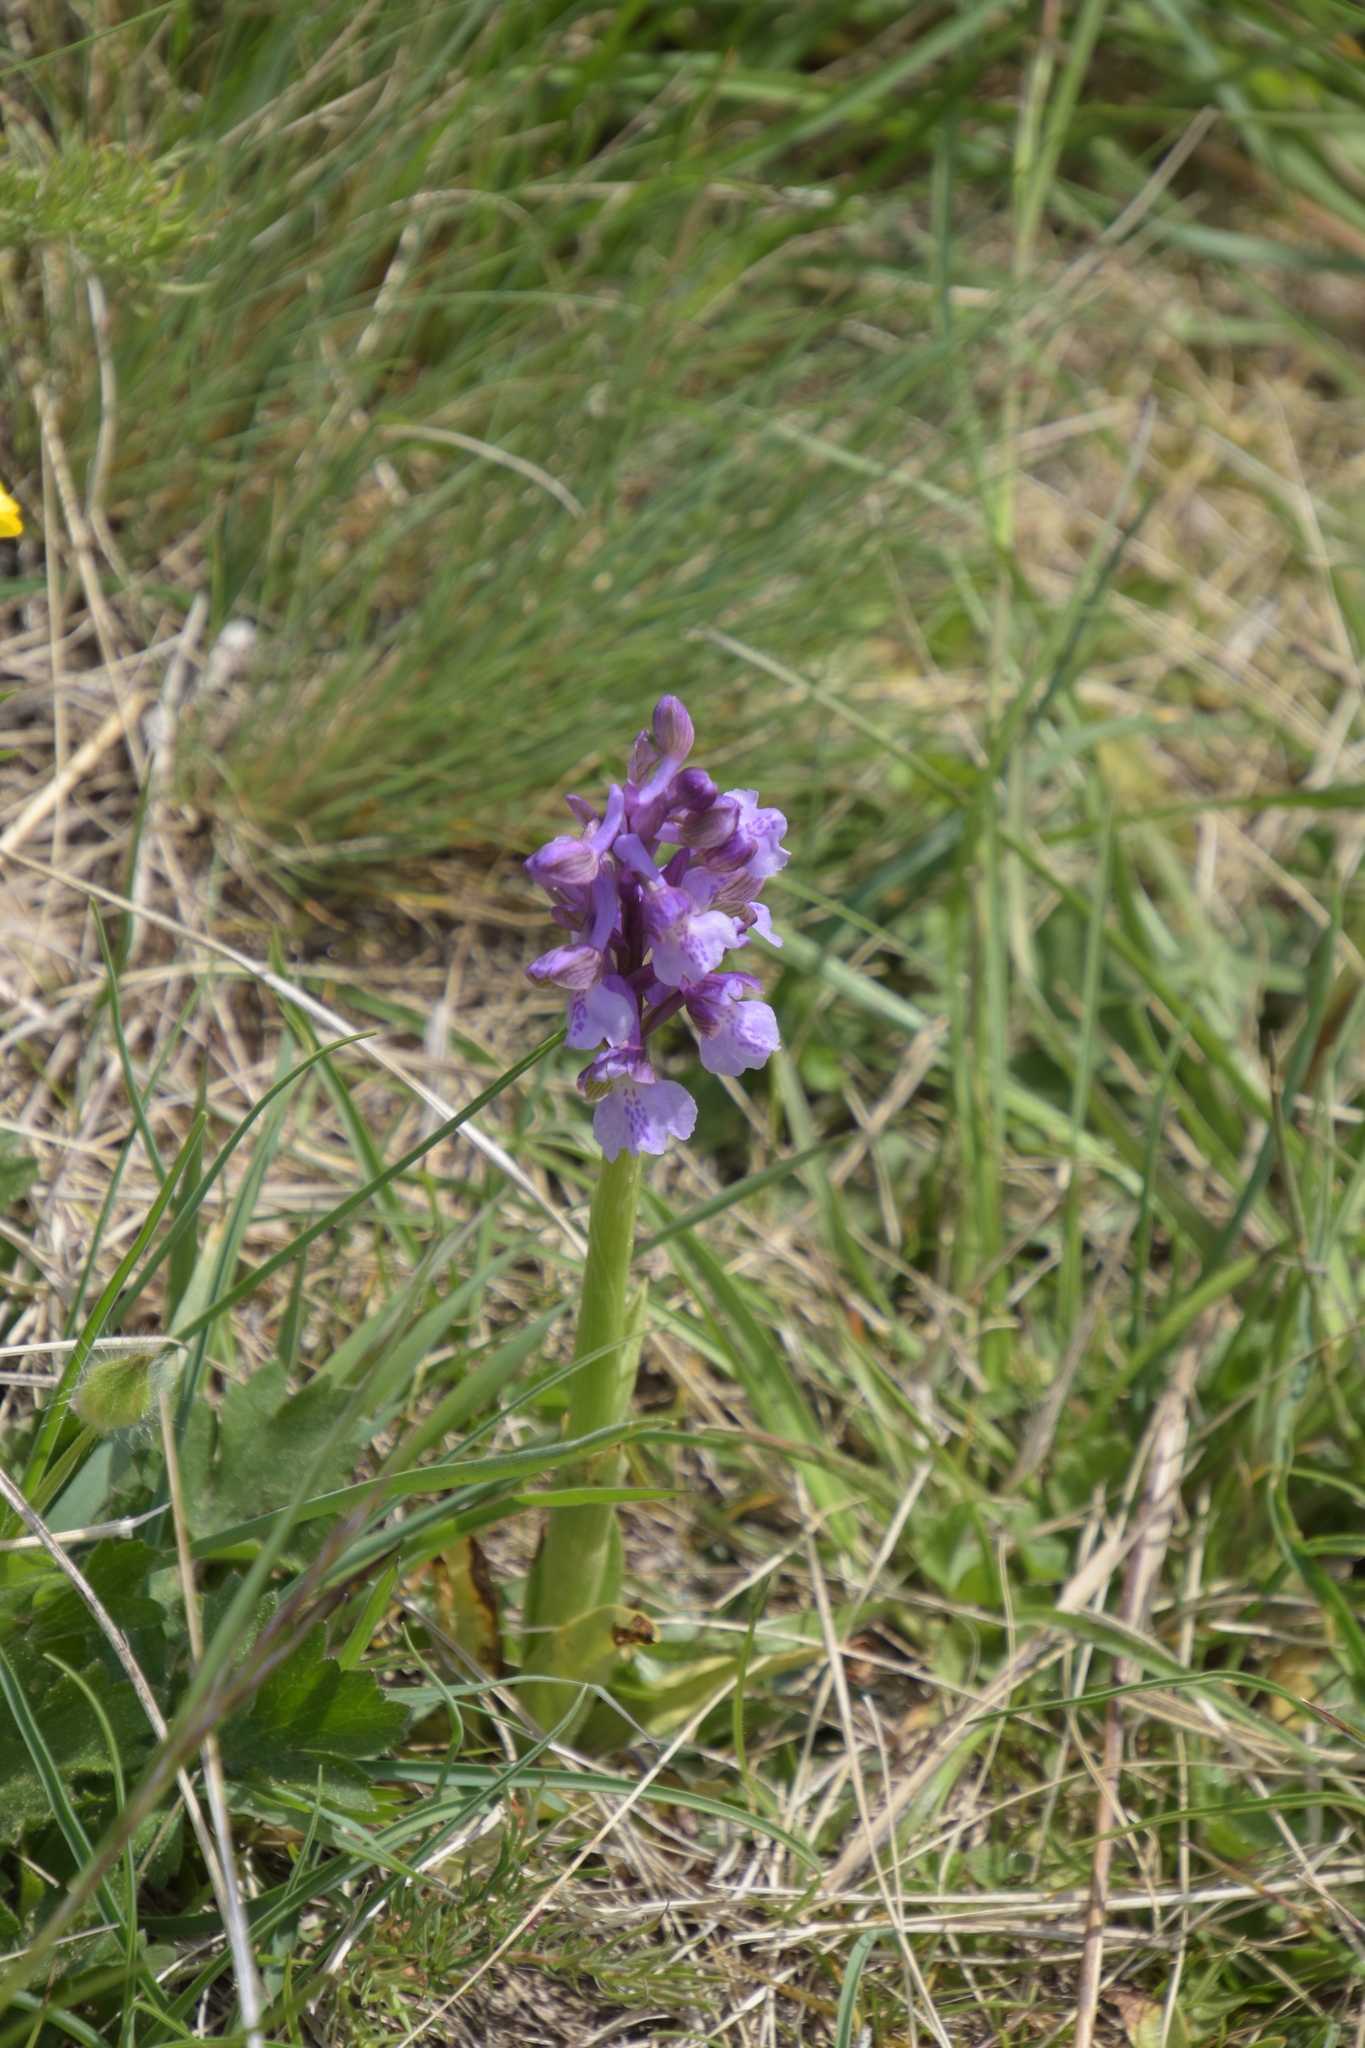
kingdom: Plantae
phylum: Tracheophyta
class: Liliopsida
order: Asparagales
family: Orchidaceae
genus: Anacamptis
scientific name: Anacamptis morio
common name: Green-winged orchid
